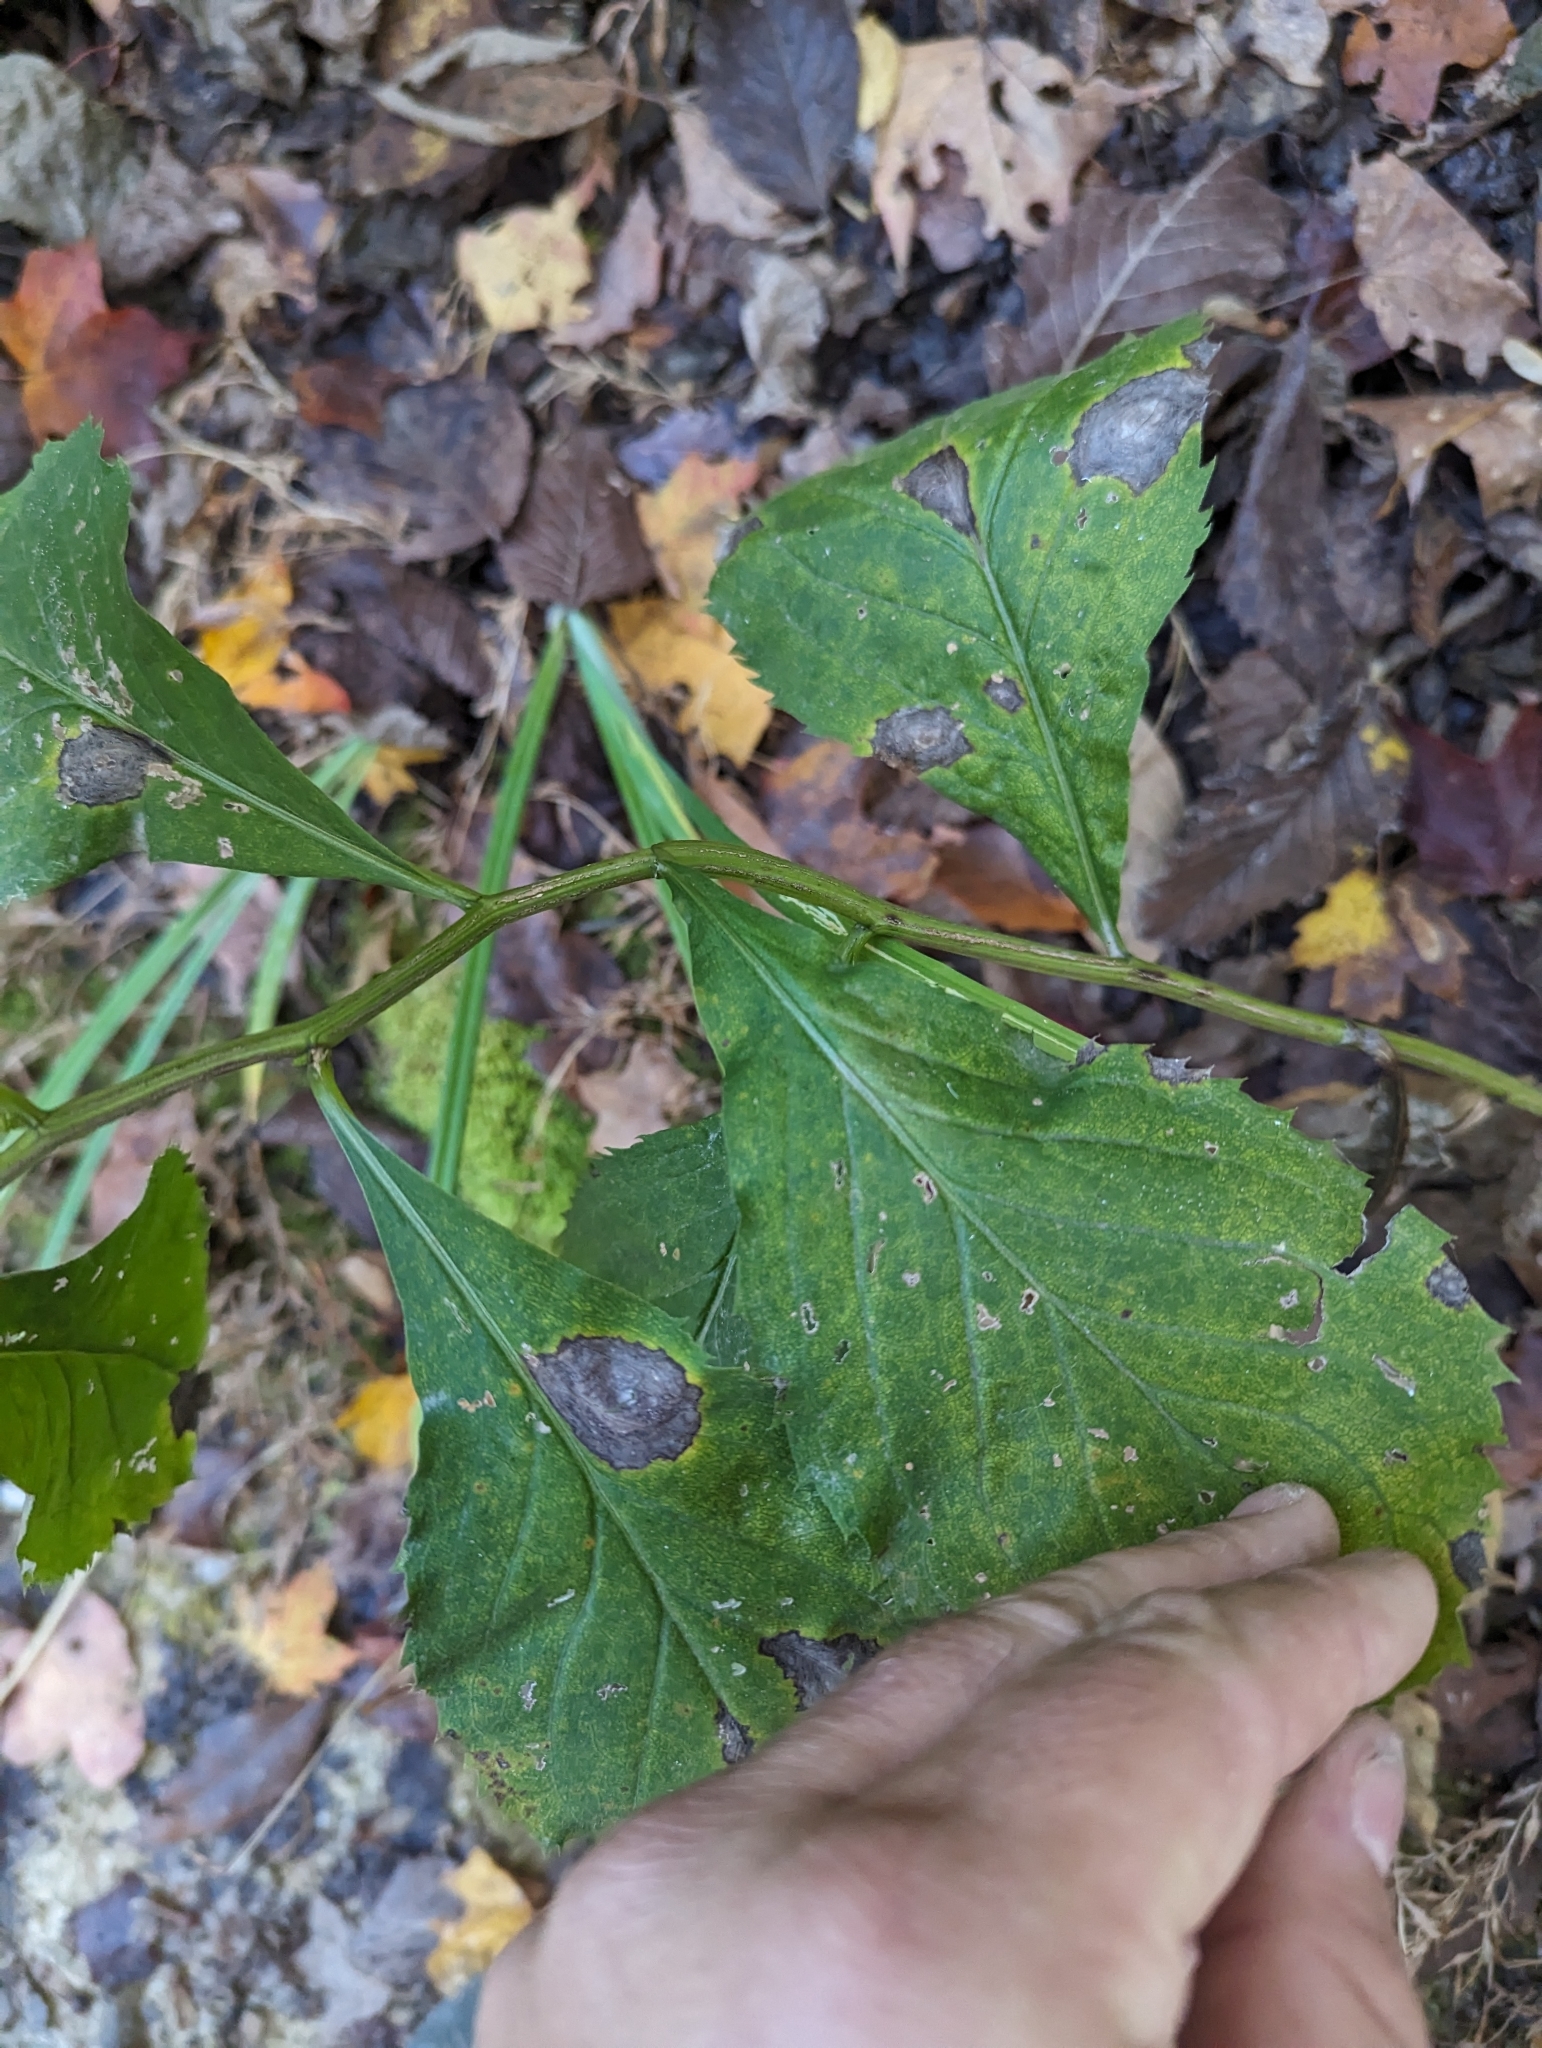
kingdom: Plantae
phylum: Tracheophyta
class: Magnoliopsida
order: Asterales
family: Asteraceae
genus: Solidago
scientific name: Solidago flexicaulis
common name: Zig-zag goldenrod
